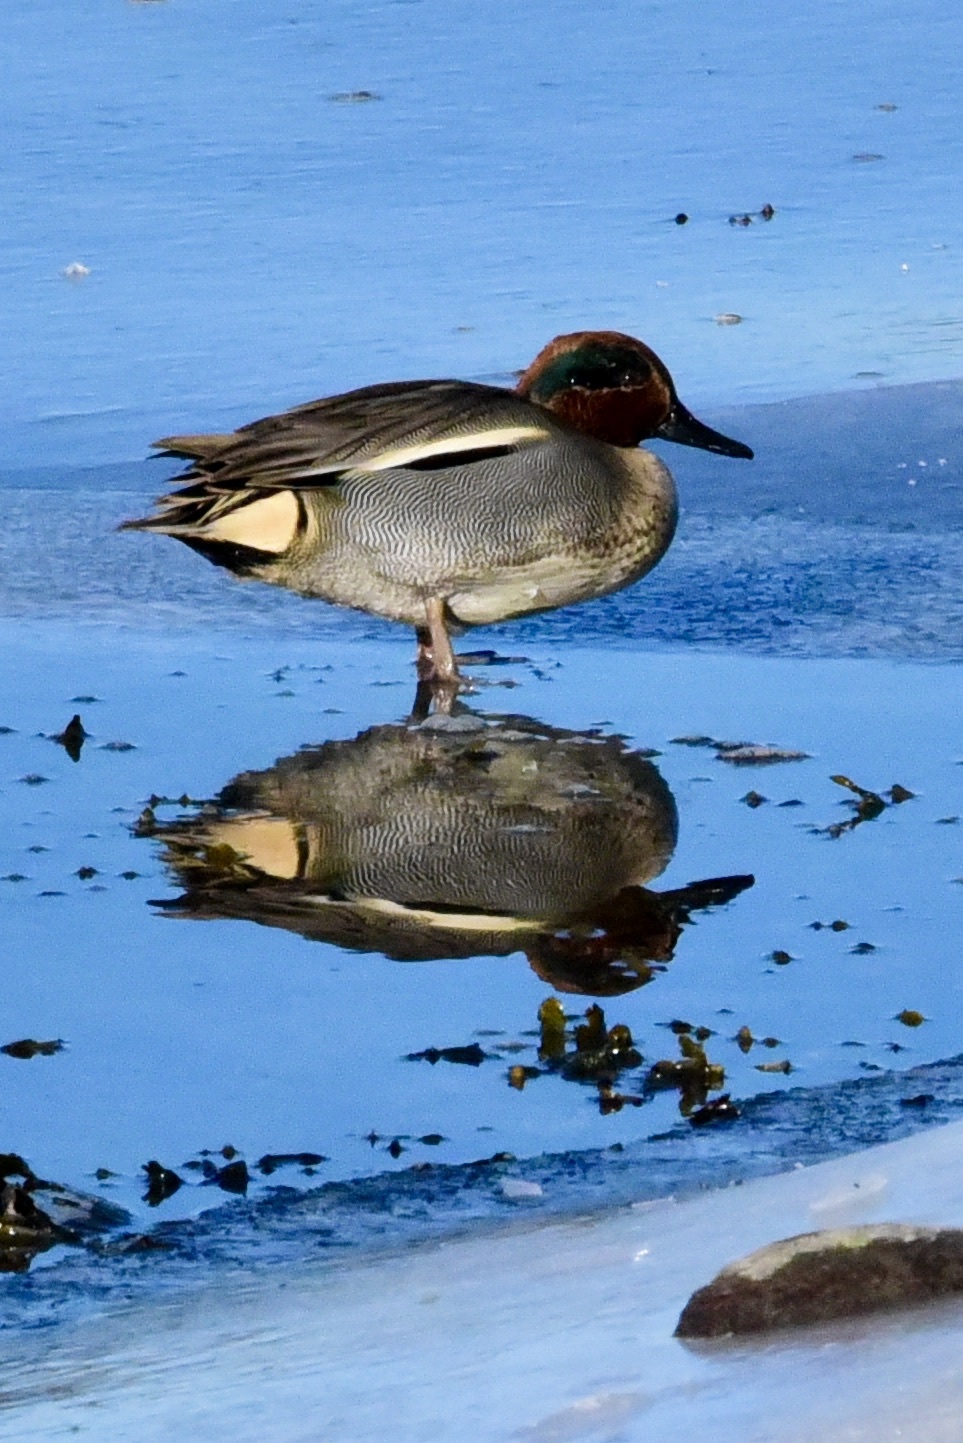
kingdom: Animalia
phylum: Chordata
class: Aves
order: Anseriformes
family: Anatidae
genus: Anas
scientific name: Anas crecca
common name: Eurasian teal
